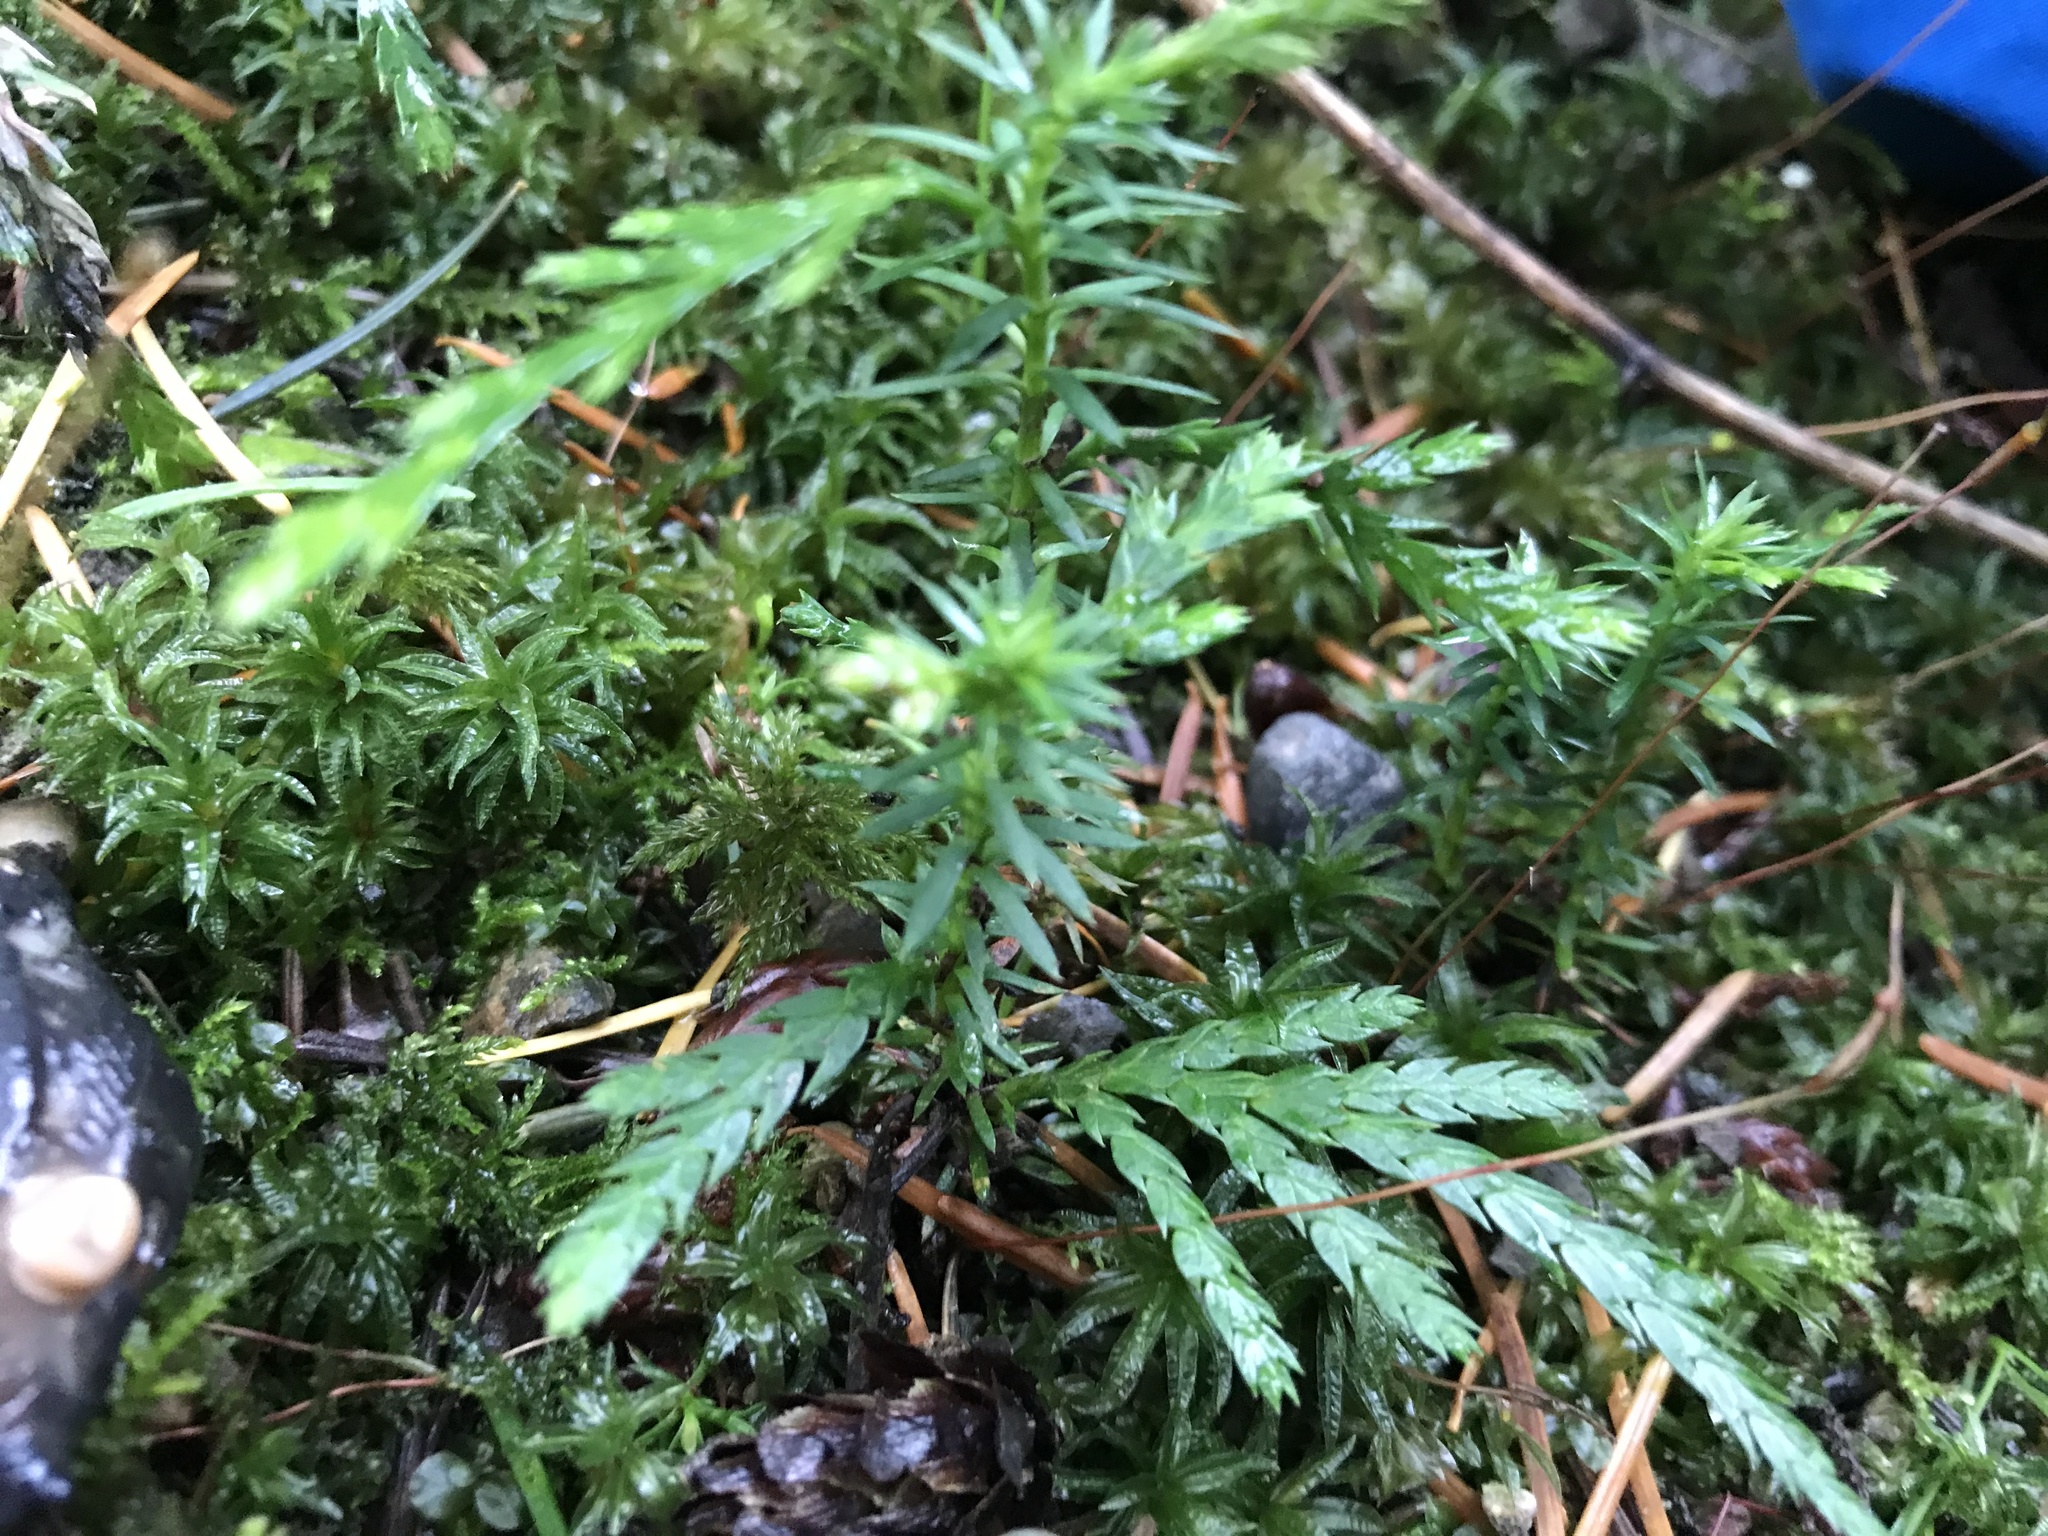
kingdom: Plantae
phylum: Tracheophyta
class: Pinopsida
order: Pinales
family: Cupressaceae
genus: Thuja
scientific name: Thuja plicata
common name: Western red-cedar
